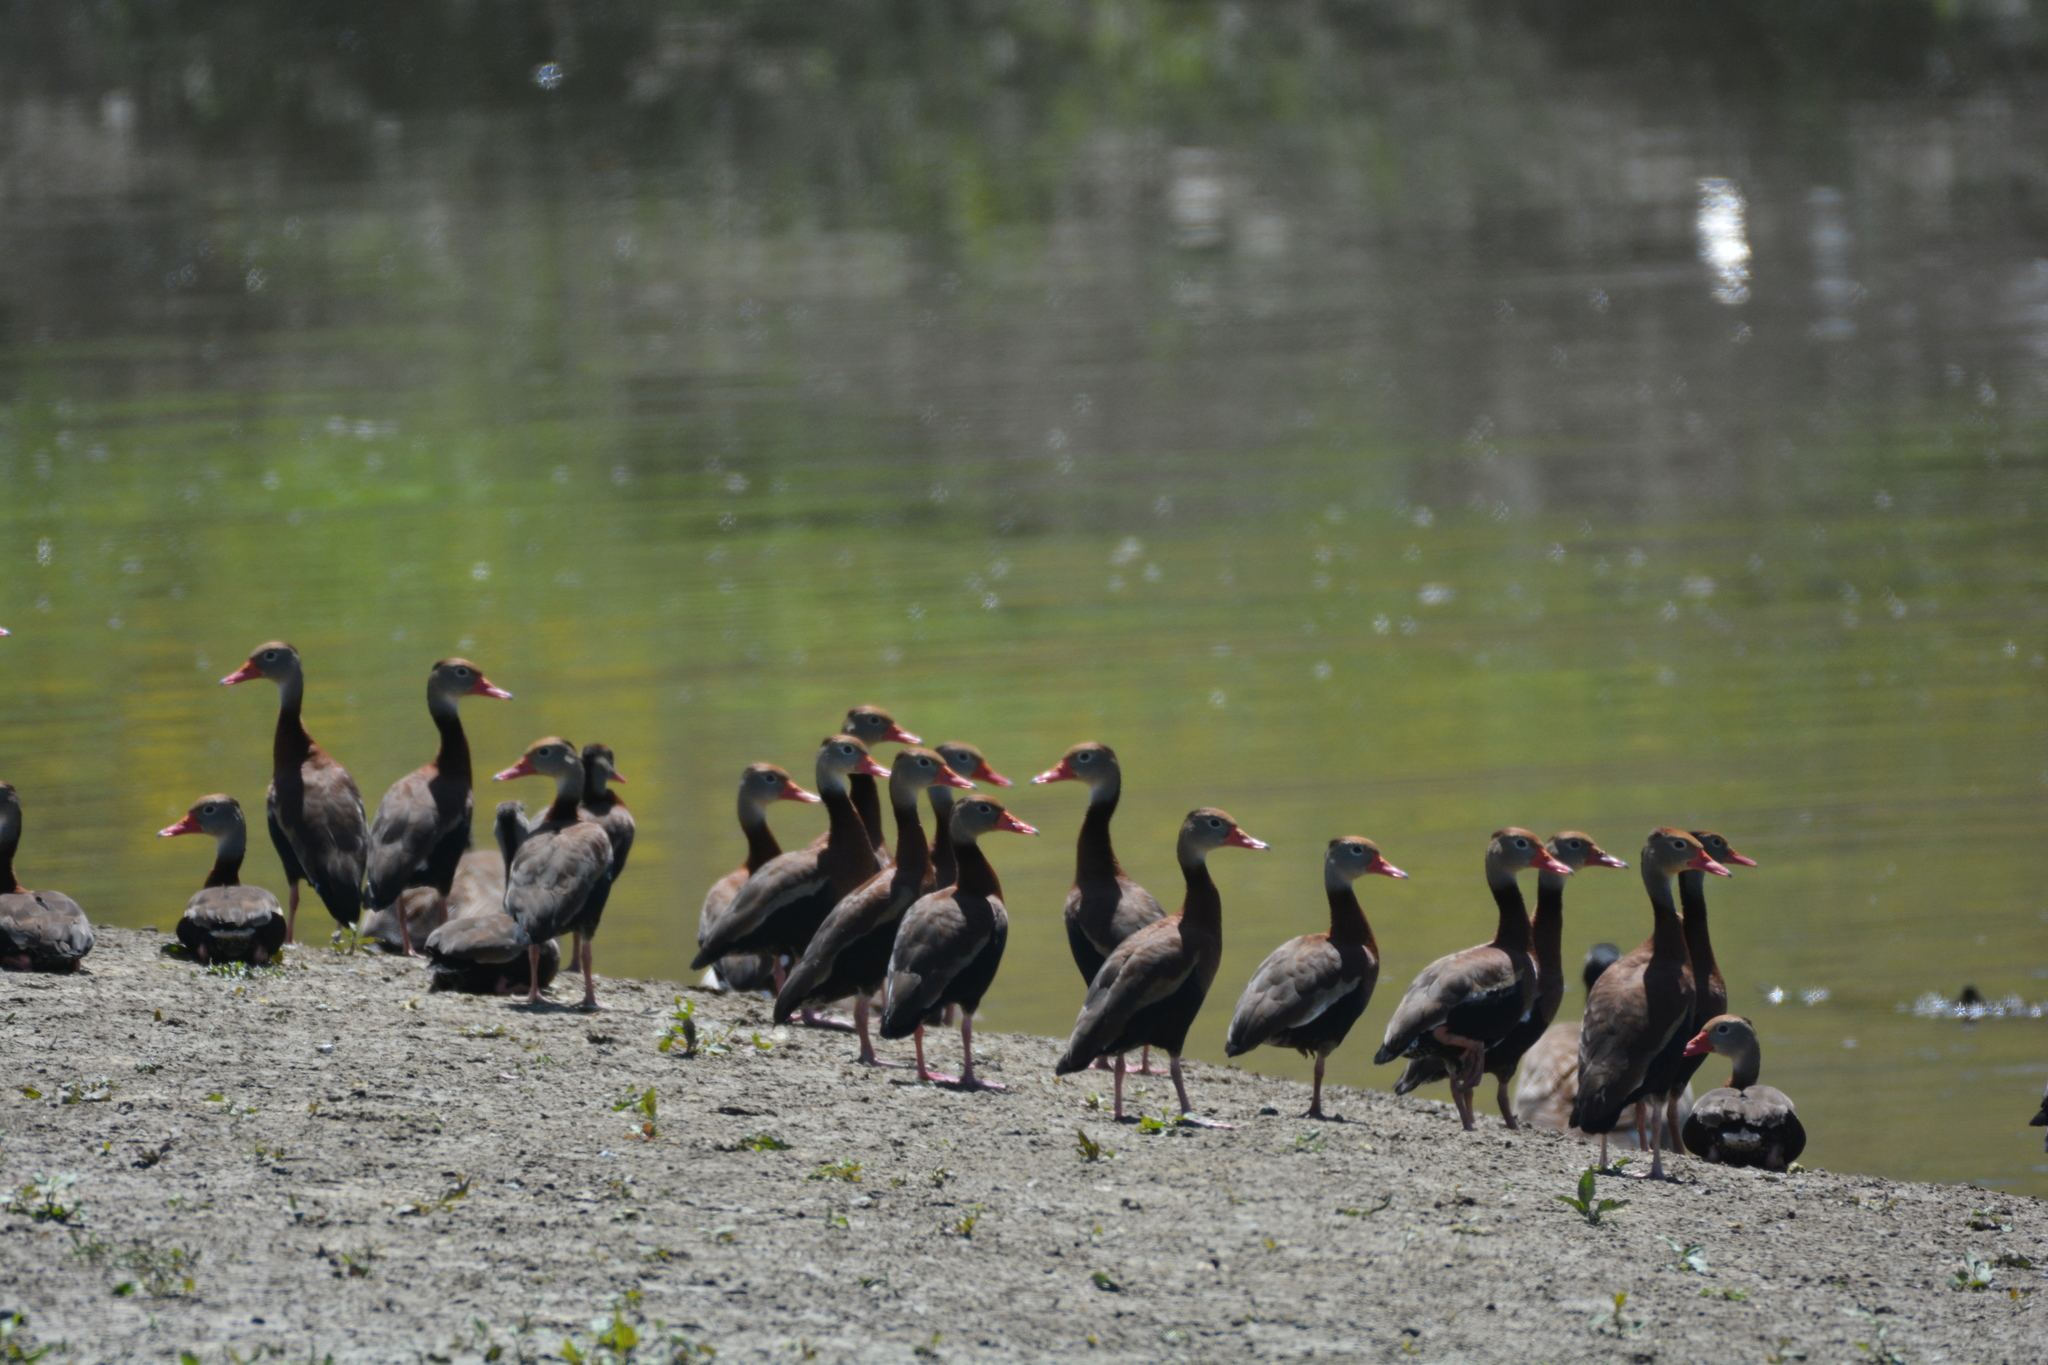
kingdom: Animalia
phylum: Chordata
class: Aves
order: Anseriformes
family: Anatidae
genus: Dendrocygna
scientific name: Dendrocygna autumnalis
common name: Black-bellied whistling duck
